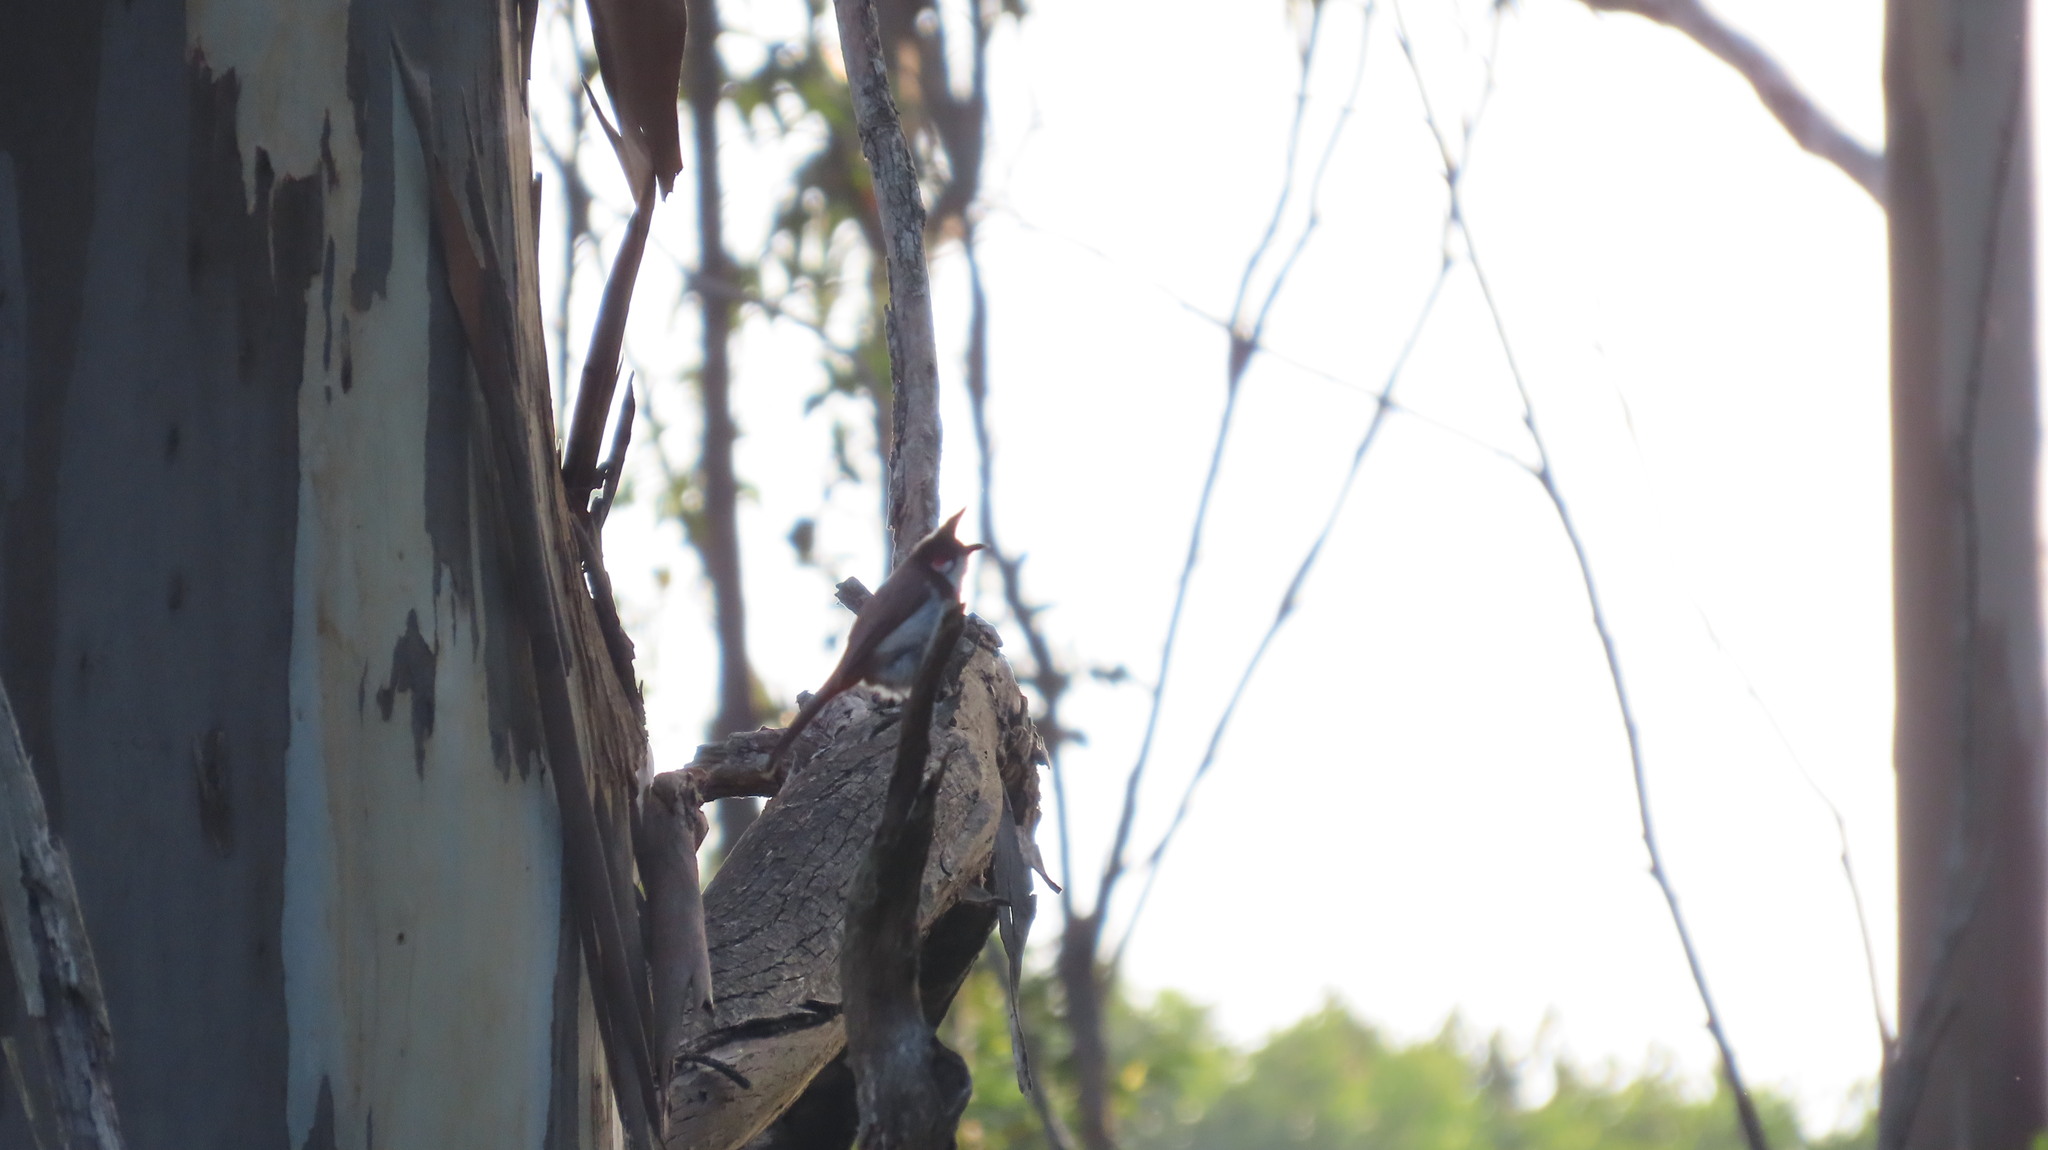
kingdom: Animalia
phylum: Chordata
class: Aves
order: Passeriformes
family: Pycnonotidae
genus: Pycnonotus
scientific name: Pycnonotus jocosus
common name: Red-whiskered bulbul
